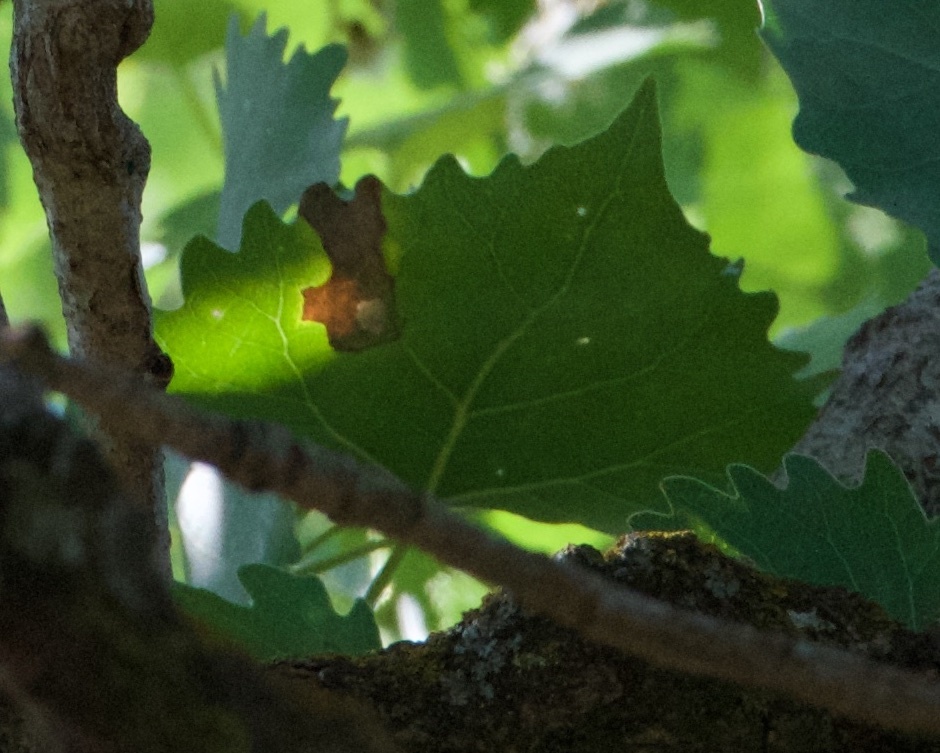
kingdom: Plantae
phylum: Tracheophyta
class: Magnoliopsida
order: Malpighiales
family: Salicaceae
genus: Populus
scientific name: Populus fremontii
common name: Fremont's cottonwood
